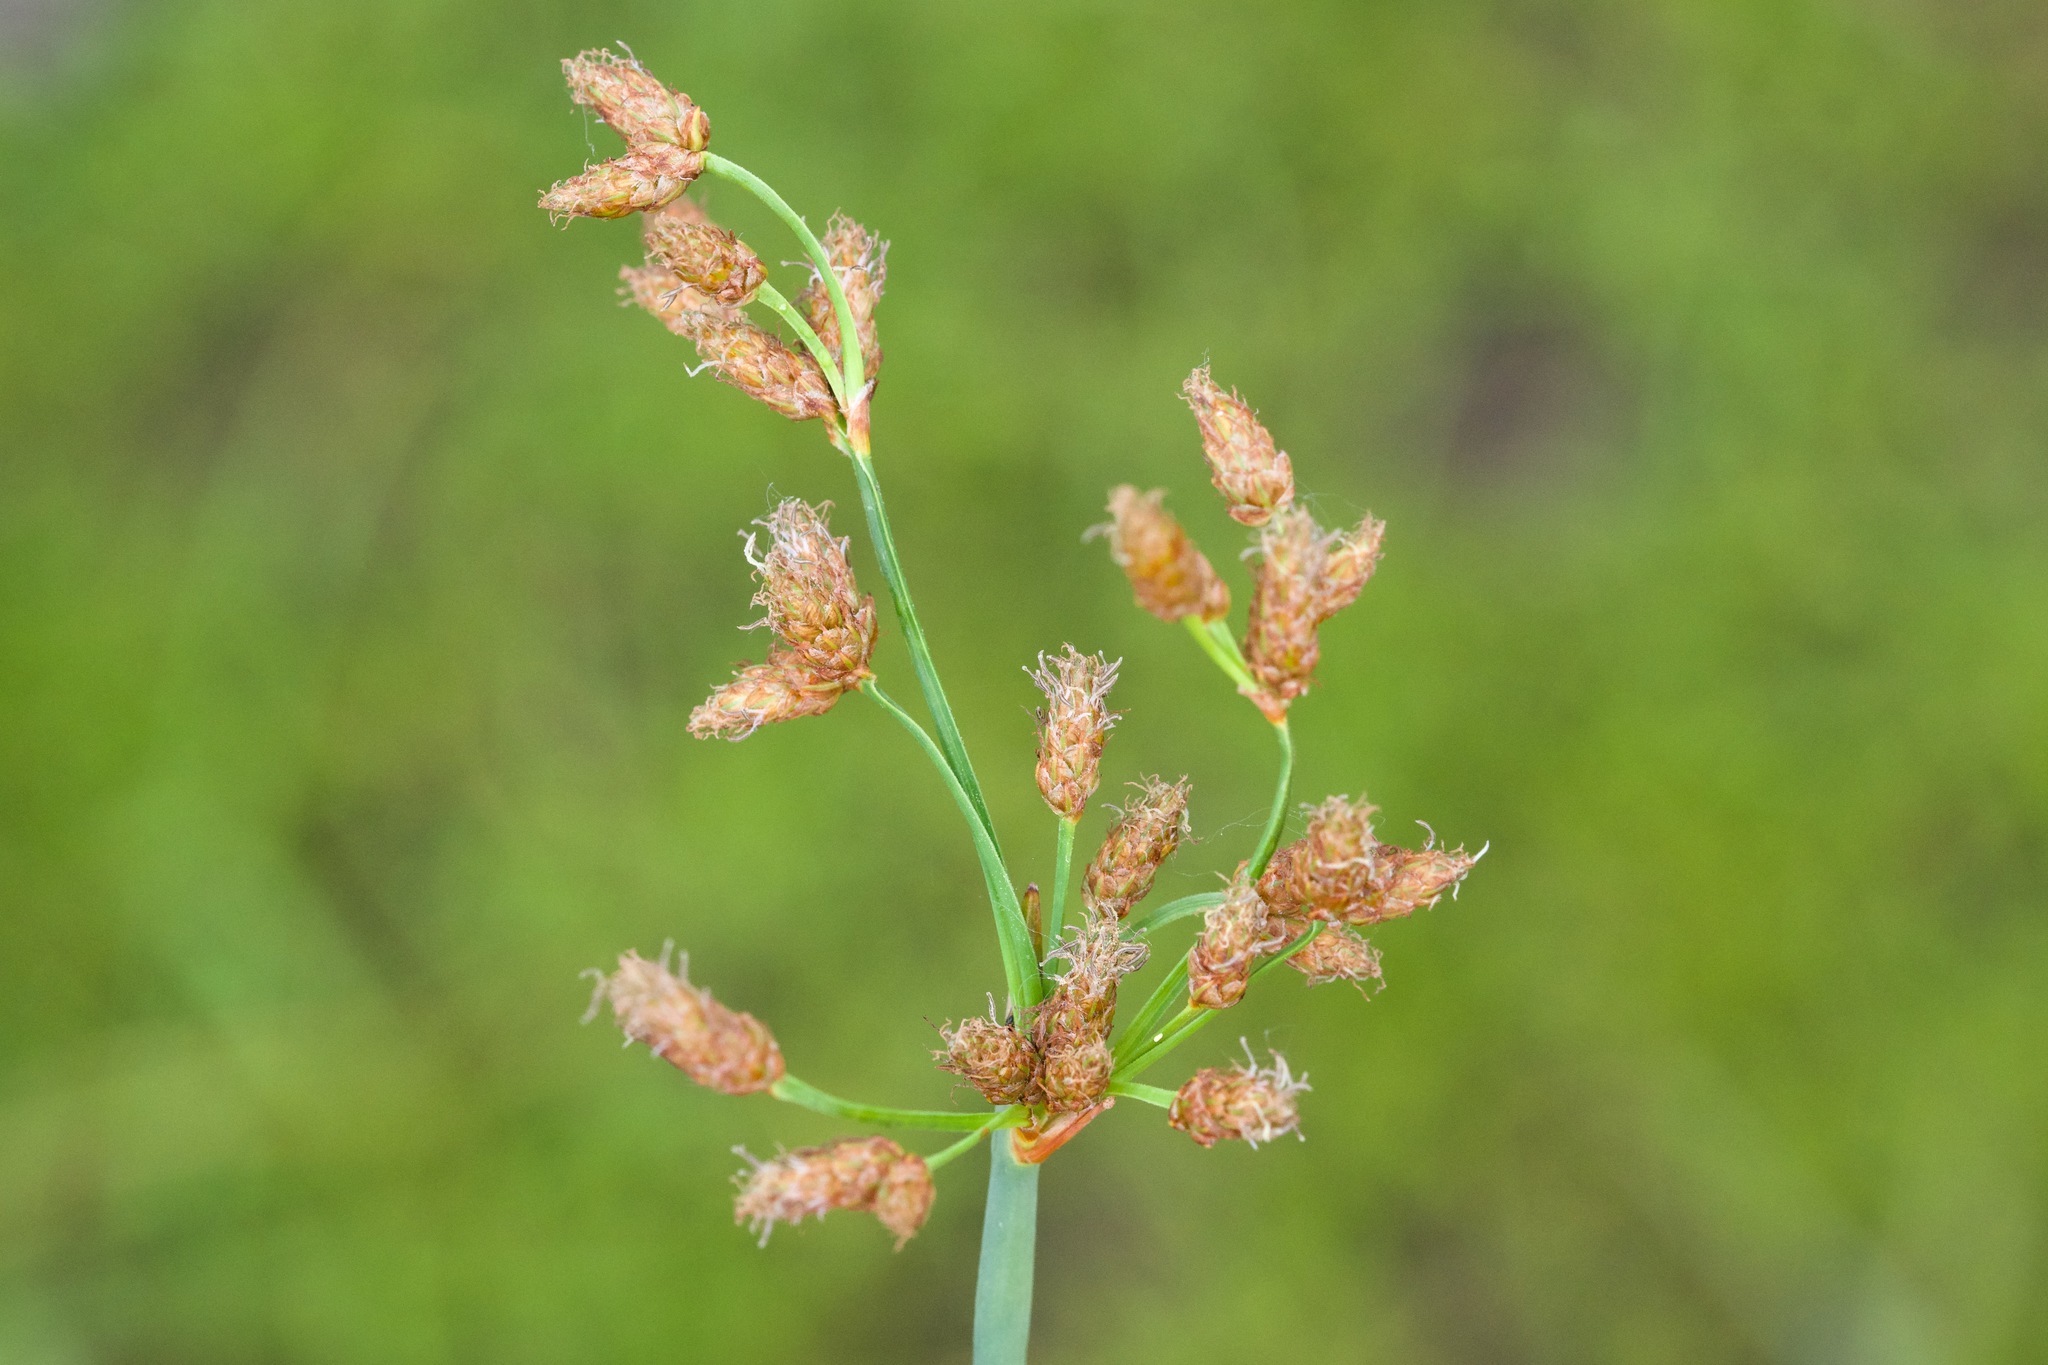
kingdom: Plantae
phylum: Tracheophyta
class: Liliopsida
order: Poales
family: Cyperaceae
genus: Schoenoplectus
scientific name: Schoenoplectus tabernaemontani
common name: Grey club-rush
